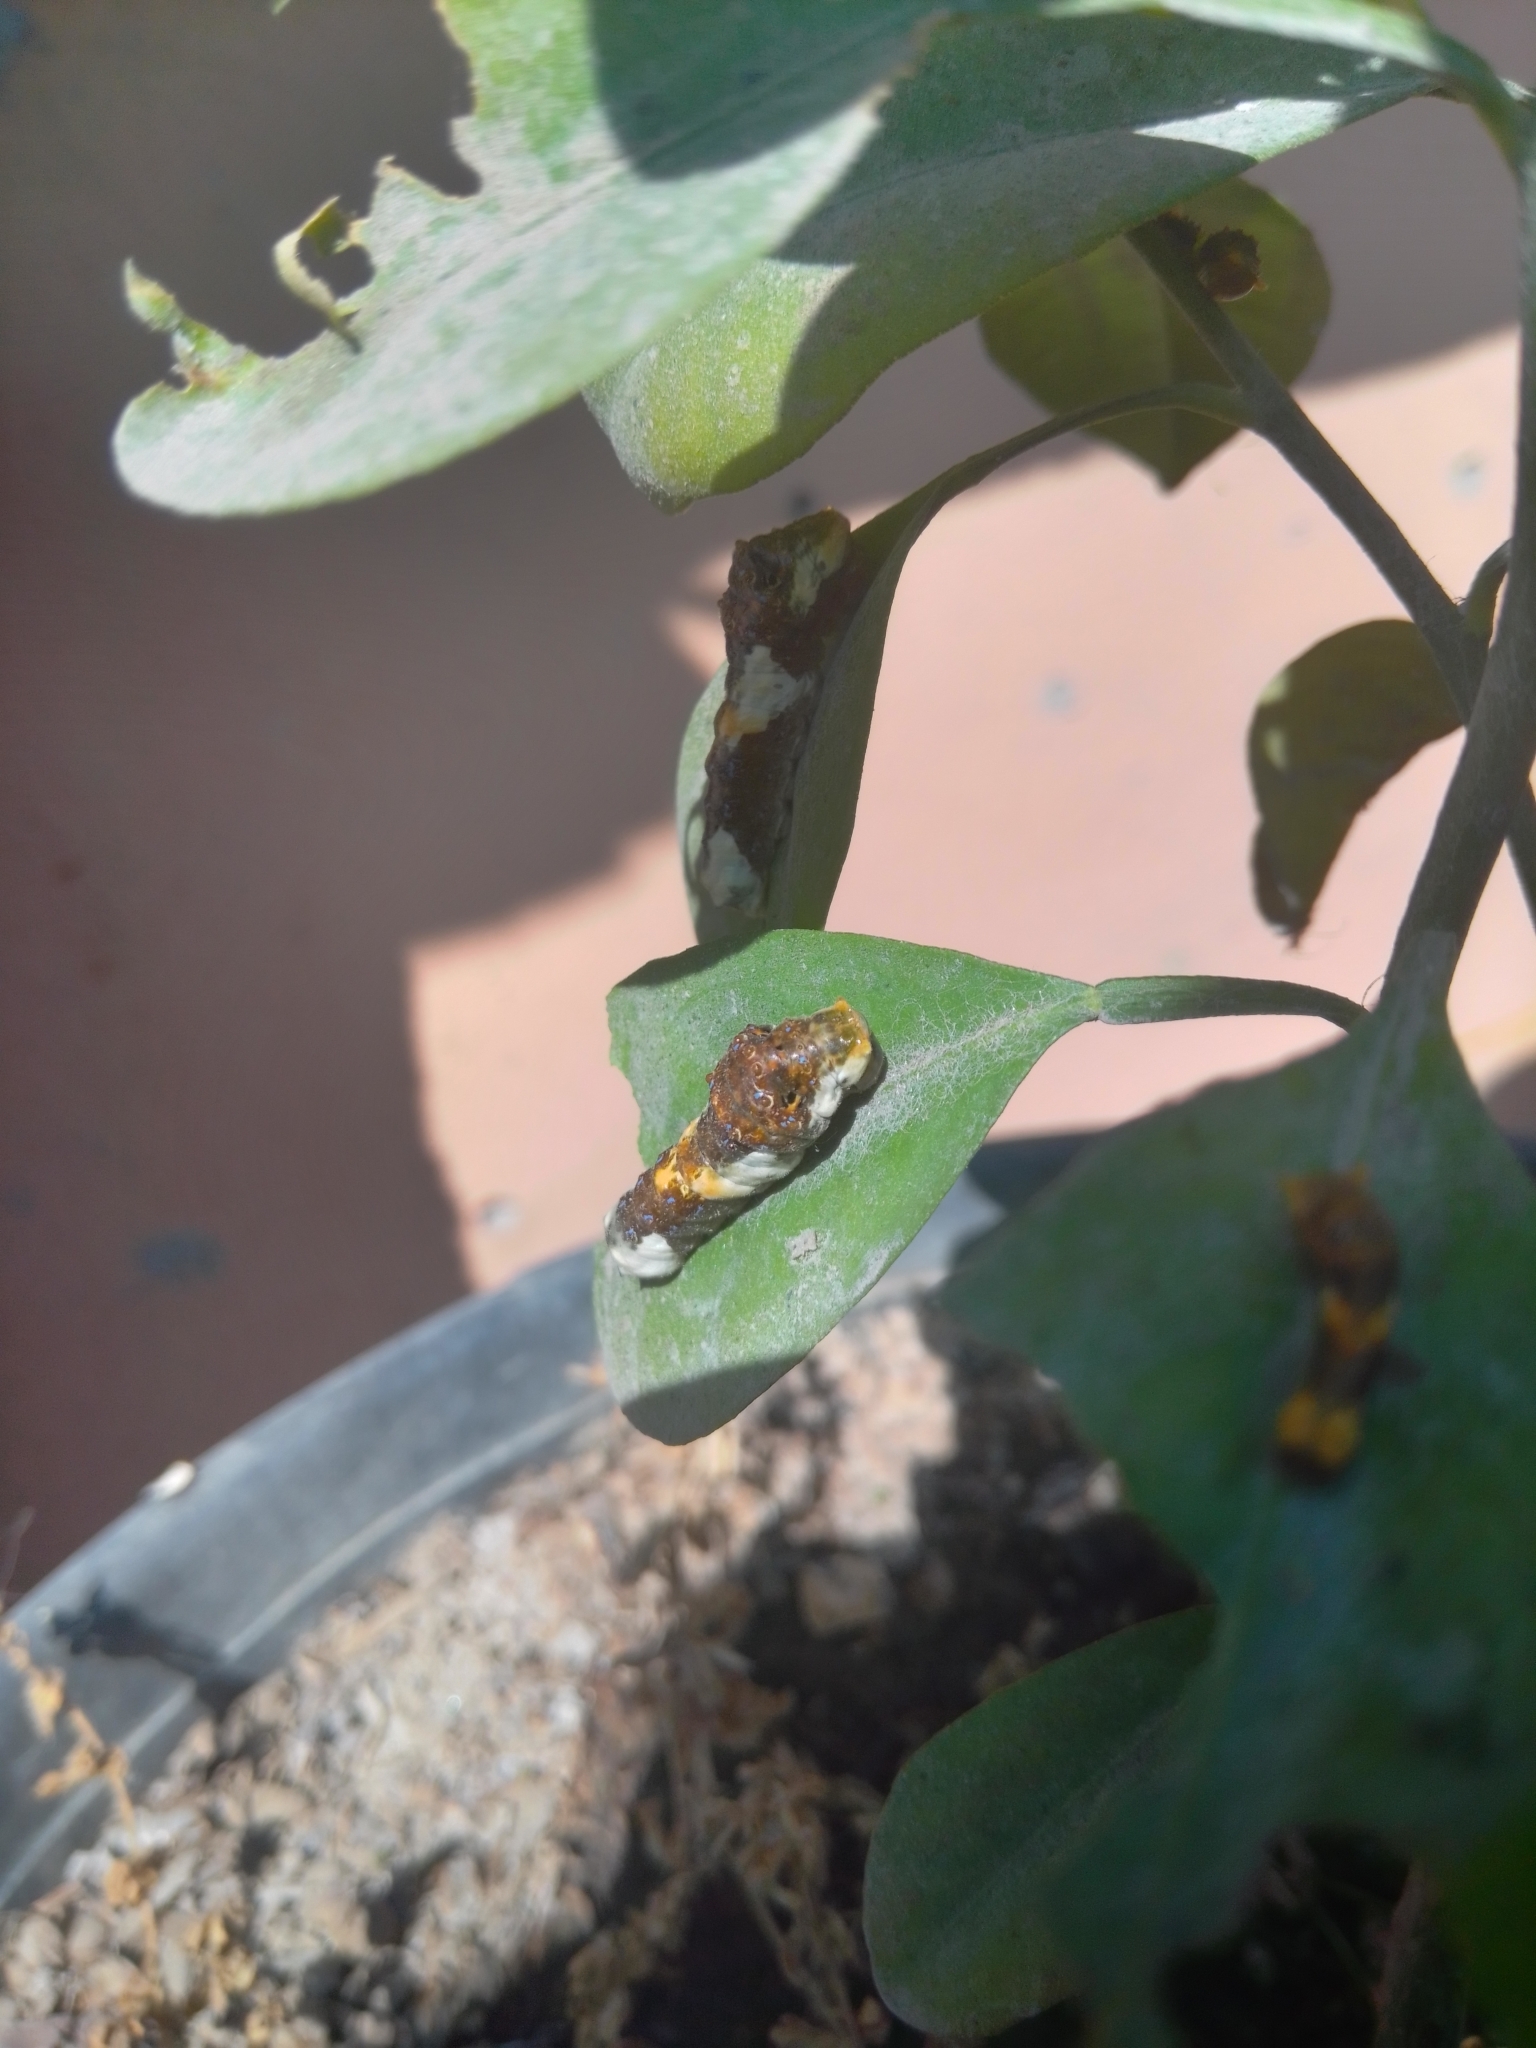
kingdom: Animalia
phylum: Arthropoda
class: Insecta
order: Lepidoptera
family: Papilionidae
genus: Papilio
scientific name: Papilio rumiko
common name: Western giant swallowtail
